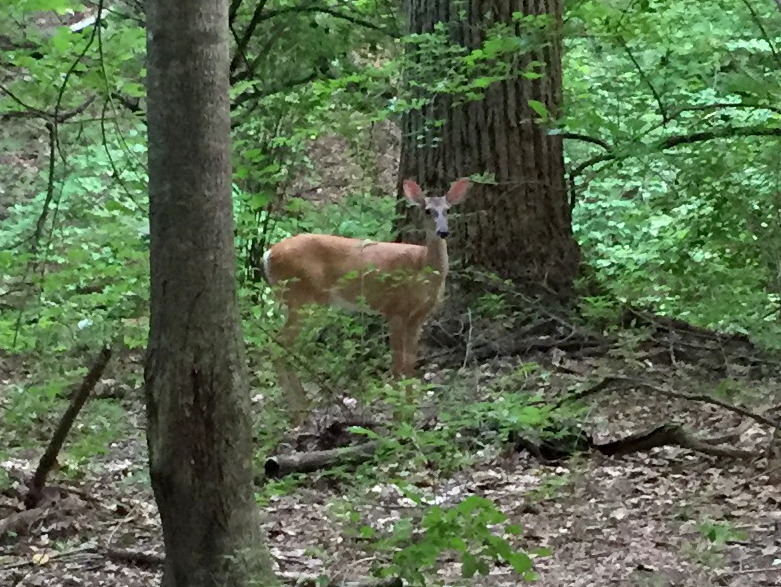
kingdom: Animalia
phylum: Chordata
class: Mammalia
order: Artiodactyla
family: Cervidae
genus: Odocoileus
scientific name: Odocoileus virginianus
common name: White-tailed deer
